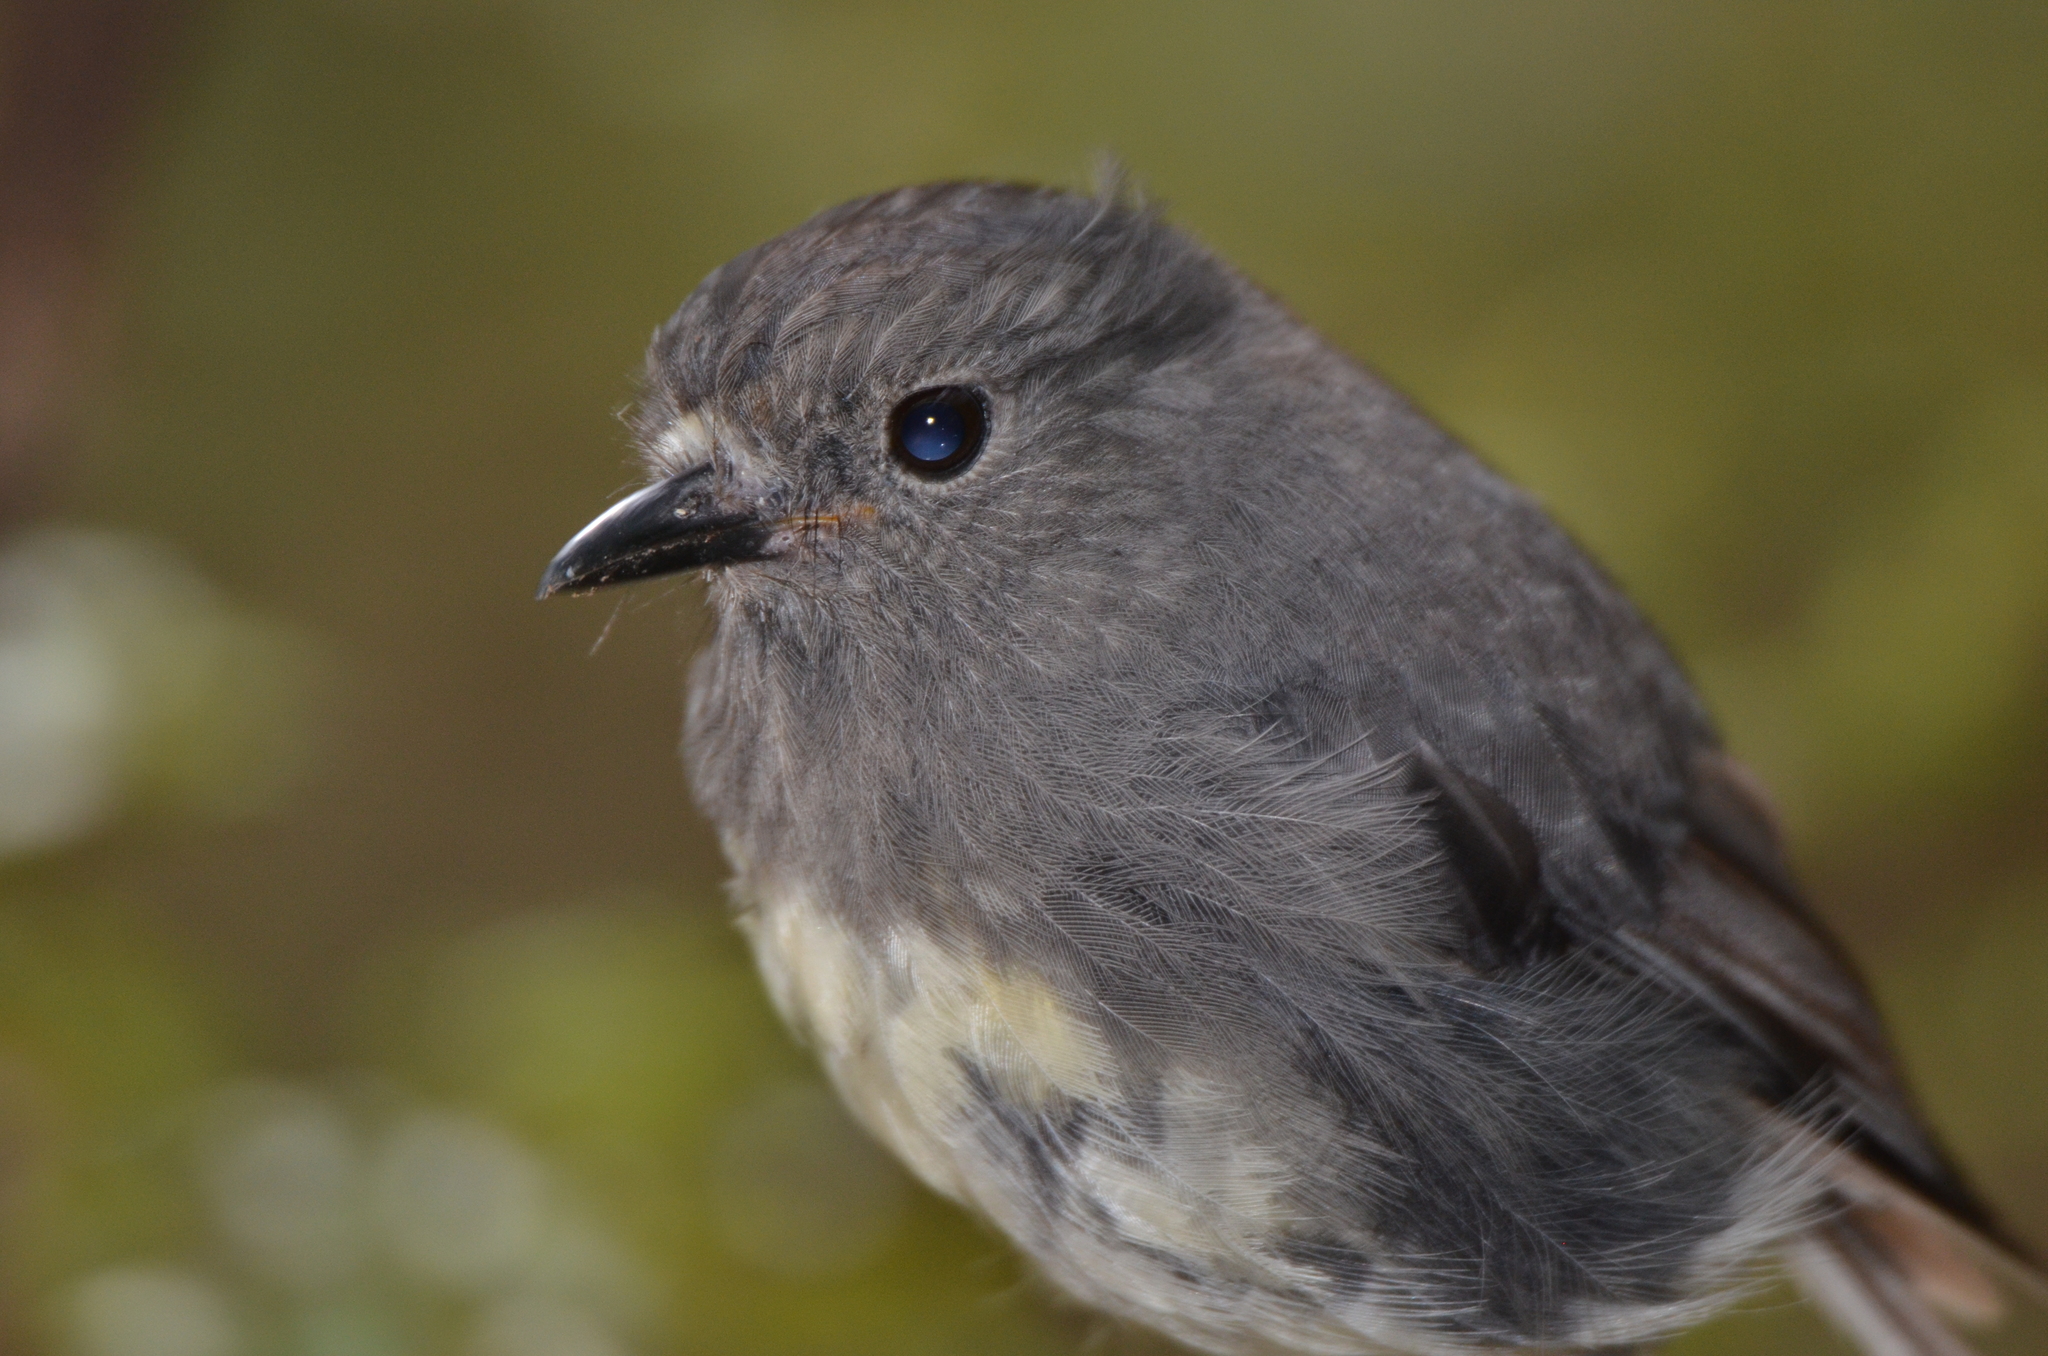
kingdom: Animalia
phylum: Chordata
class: Aves
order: Passeriformes
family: Petroicidae
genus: Petroica
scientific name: Petroica australis
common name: New zealand robin
